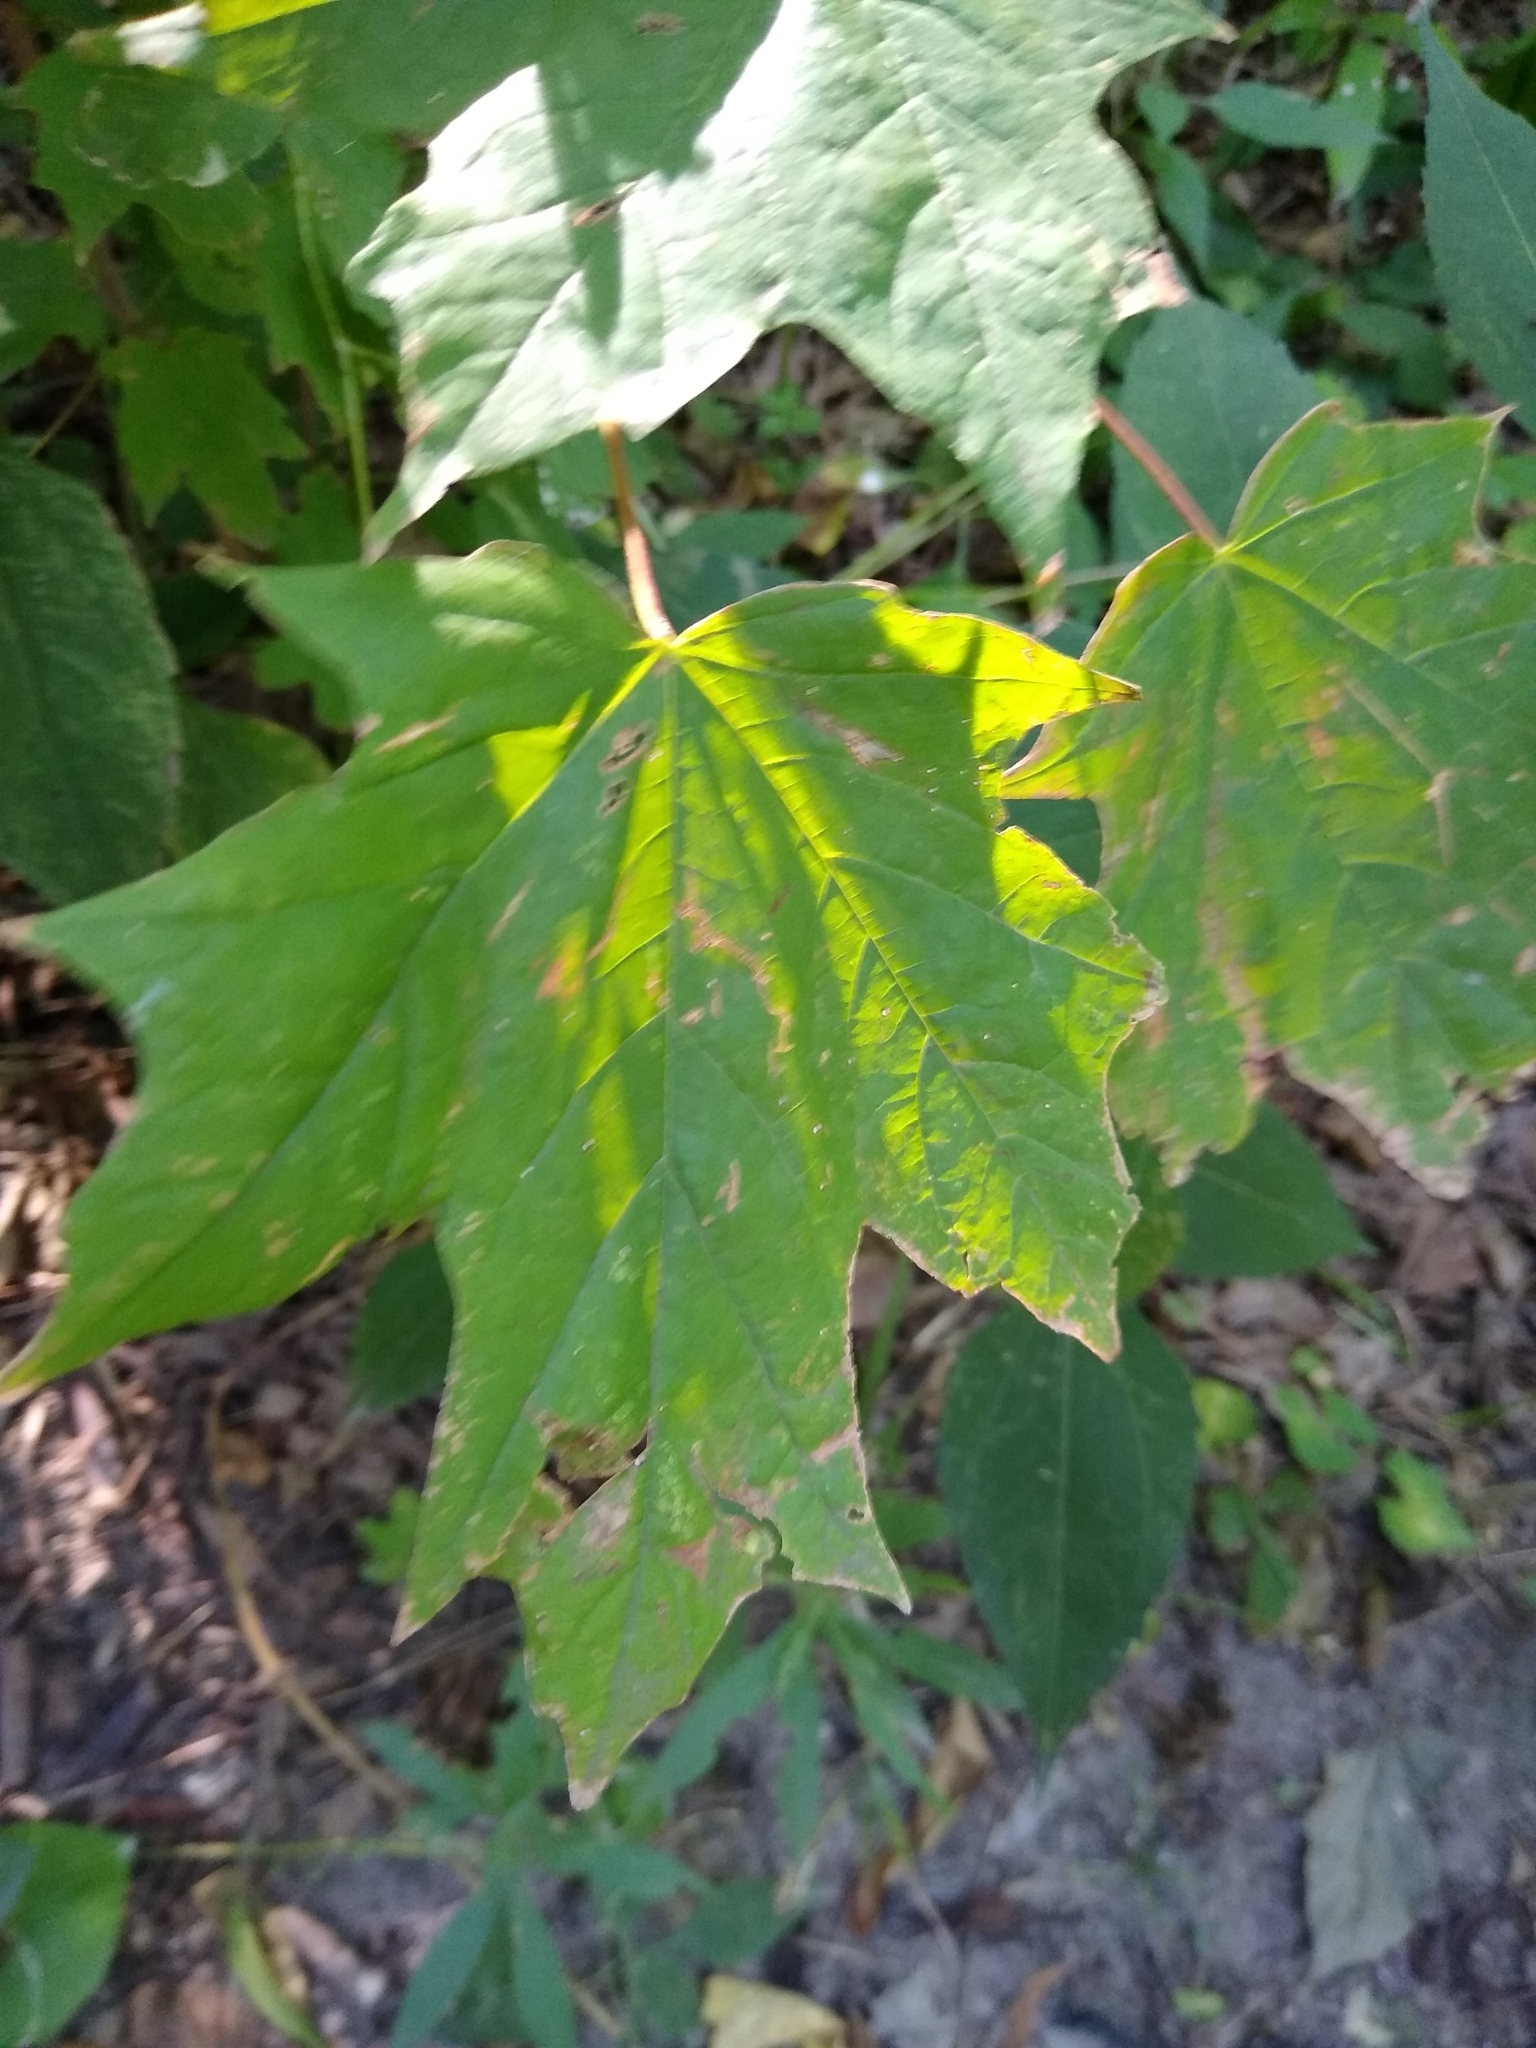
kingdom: Plantae
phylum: Tracheophyta
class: Magnoliopsida
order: Sapindales
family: Sapindaceae
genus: Acer
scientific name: Acer saccharum
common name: Sugar maple
